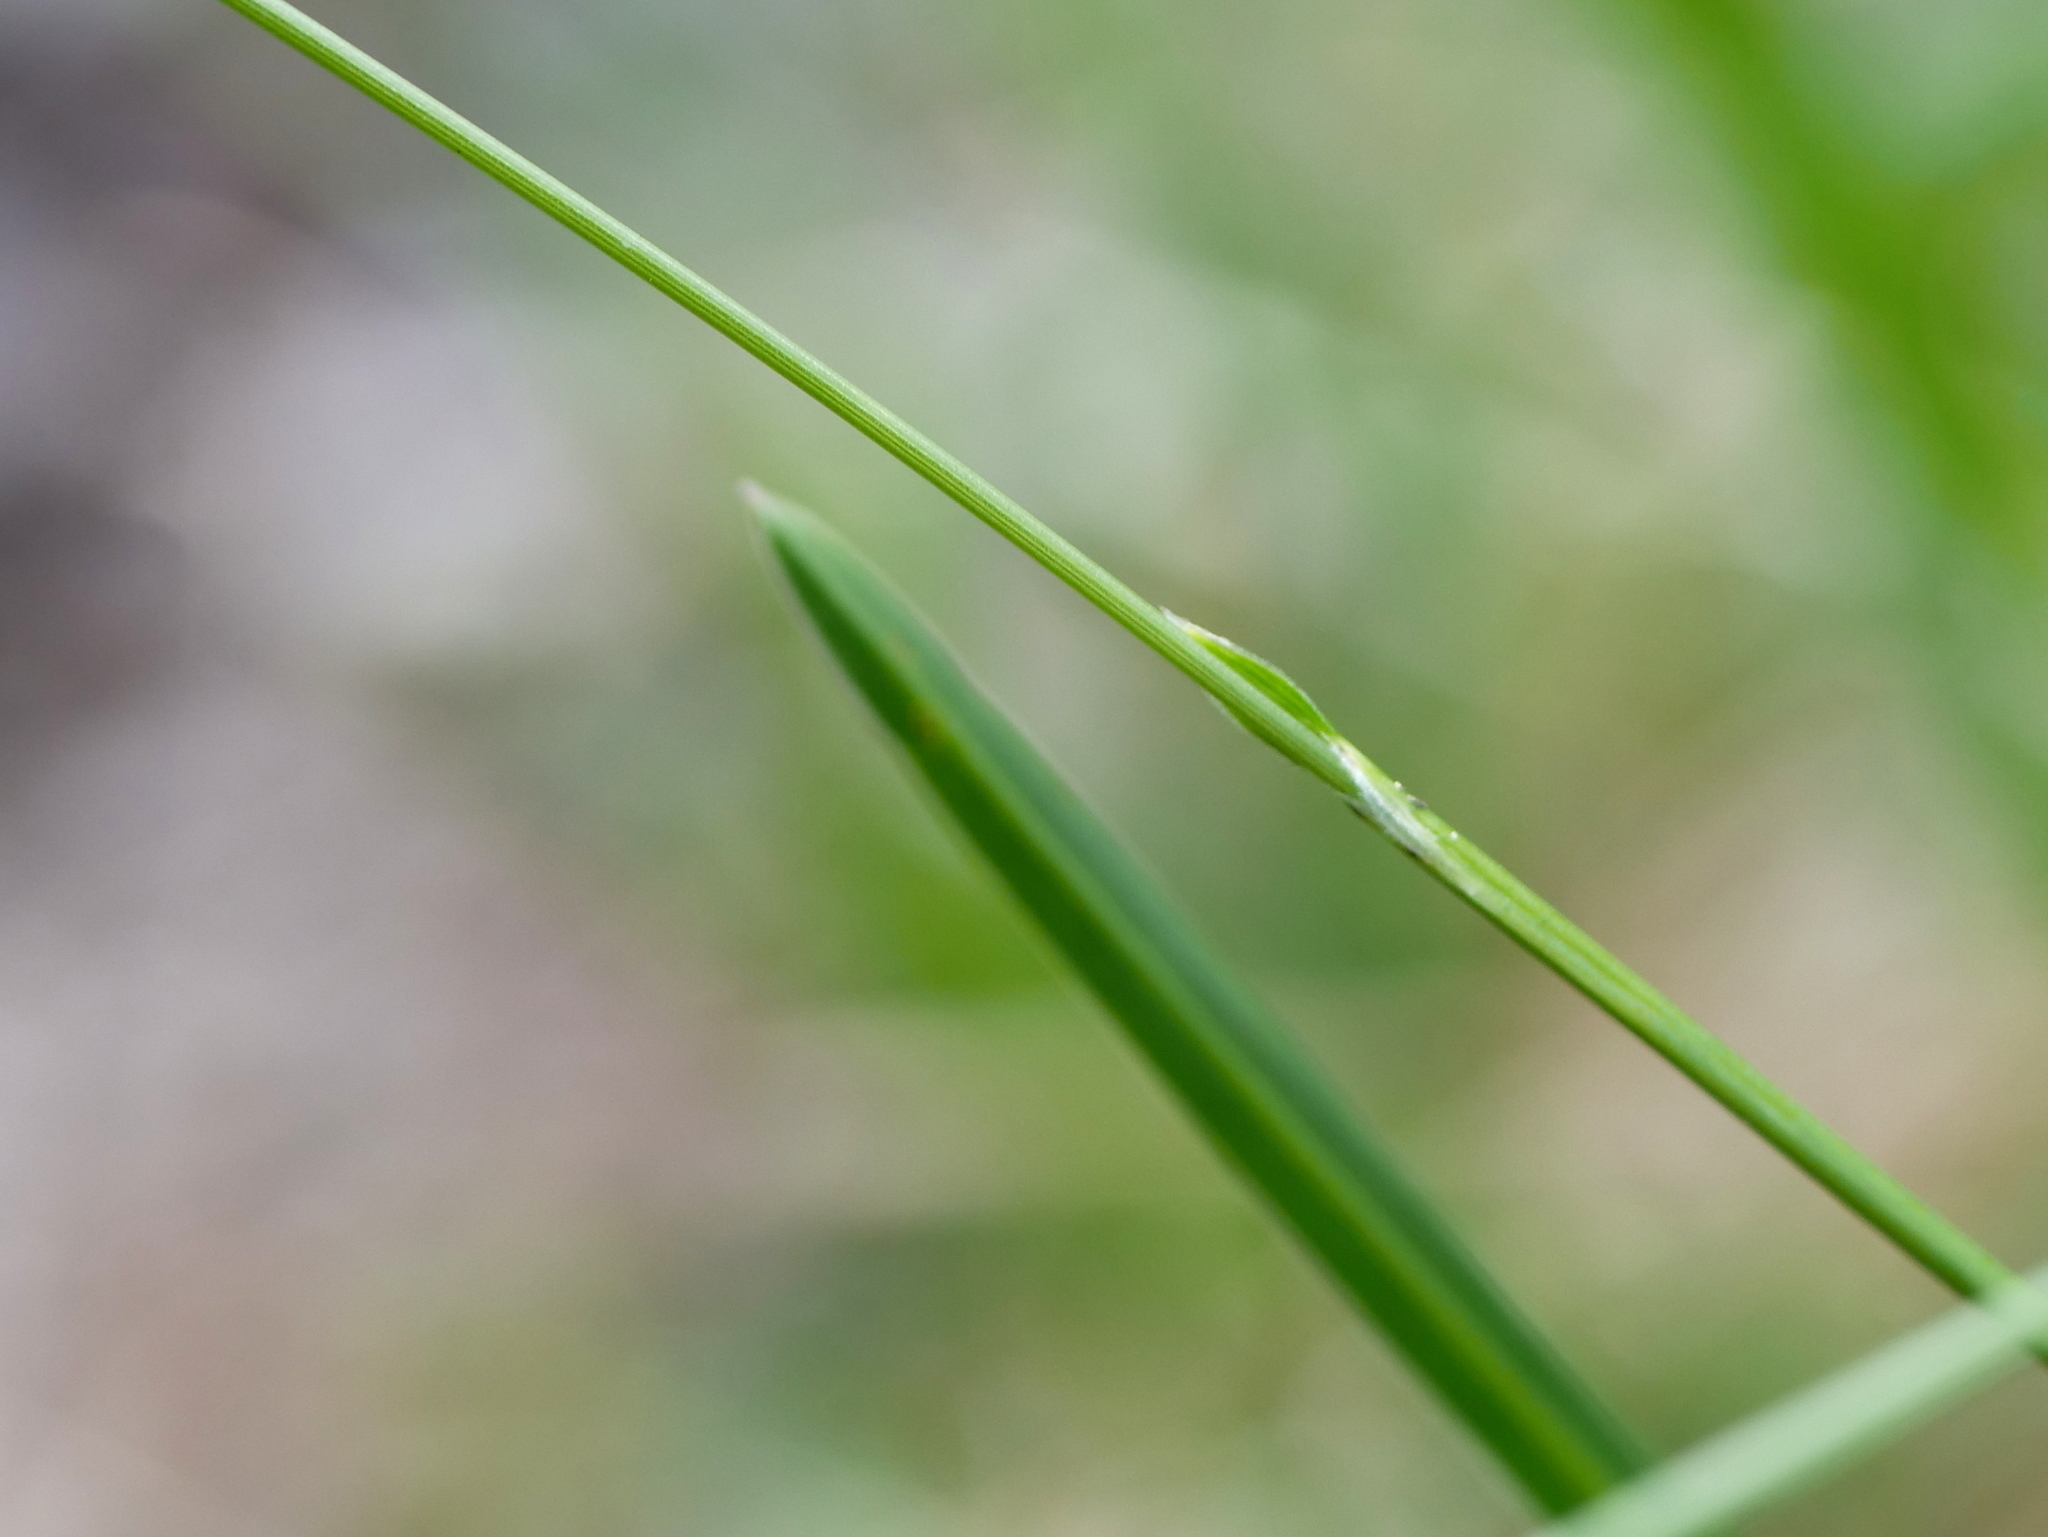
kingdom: Plantae
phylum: Tracheophyta
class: Liliopsida
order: Poales
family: Poaceae
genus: Sesleria
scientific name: Sesleria caerulea
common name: Blue moor-grass
